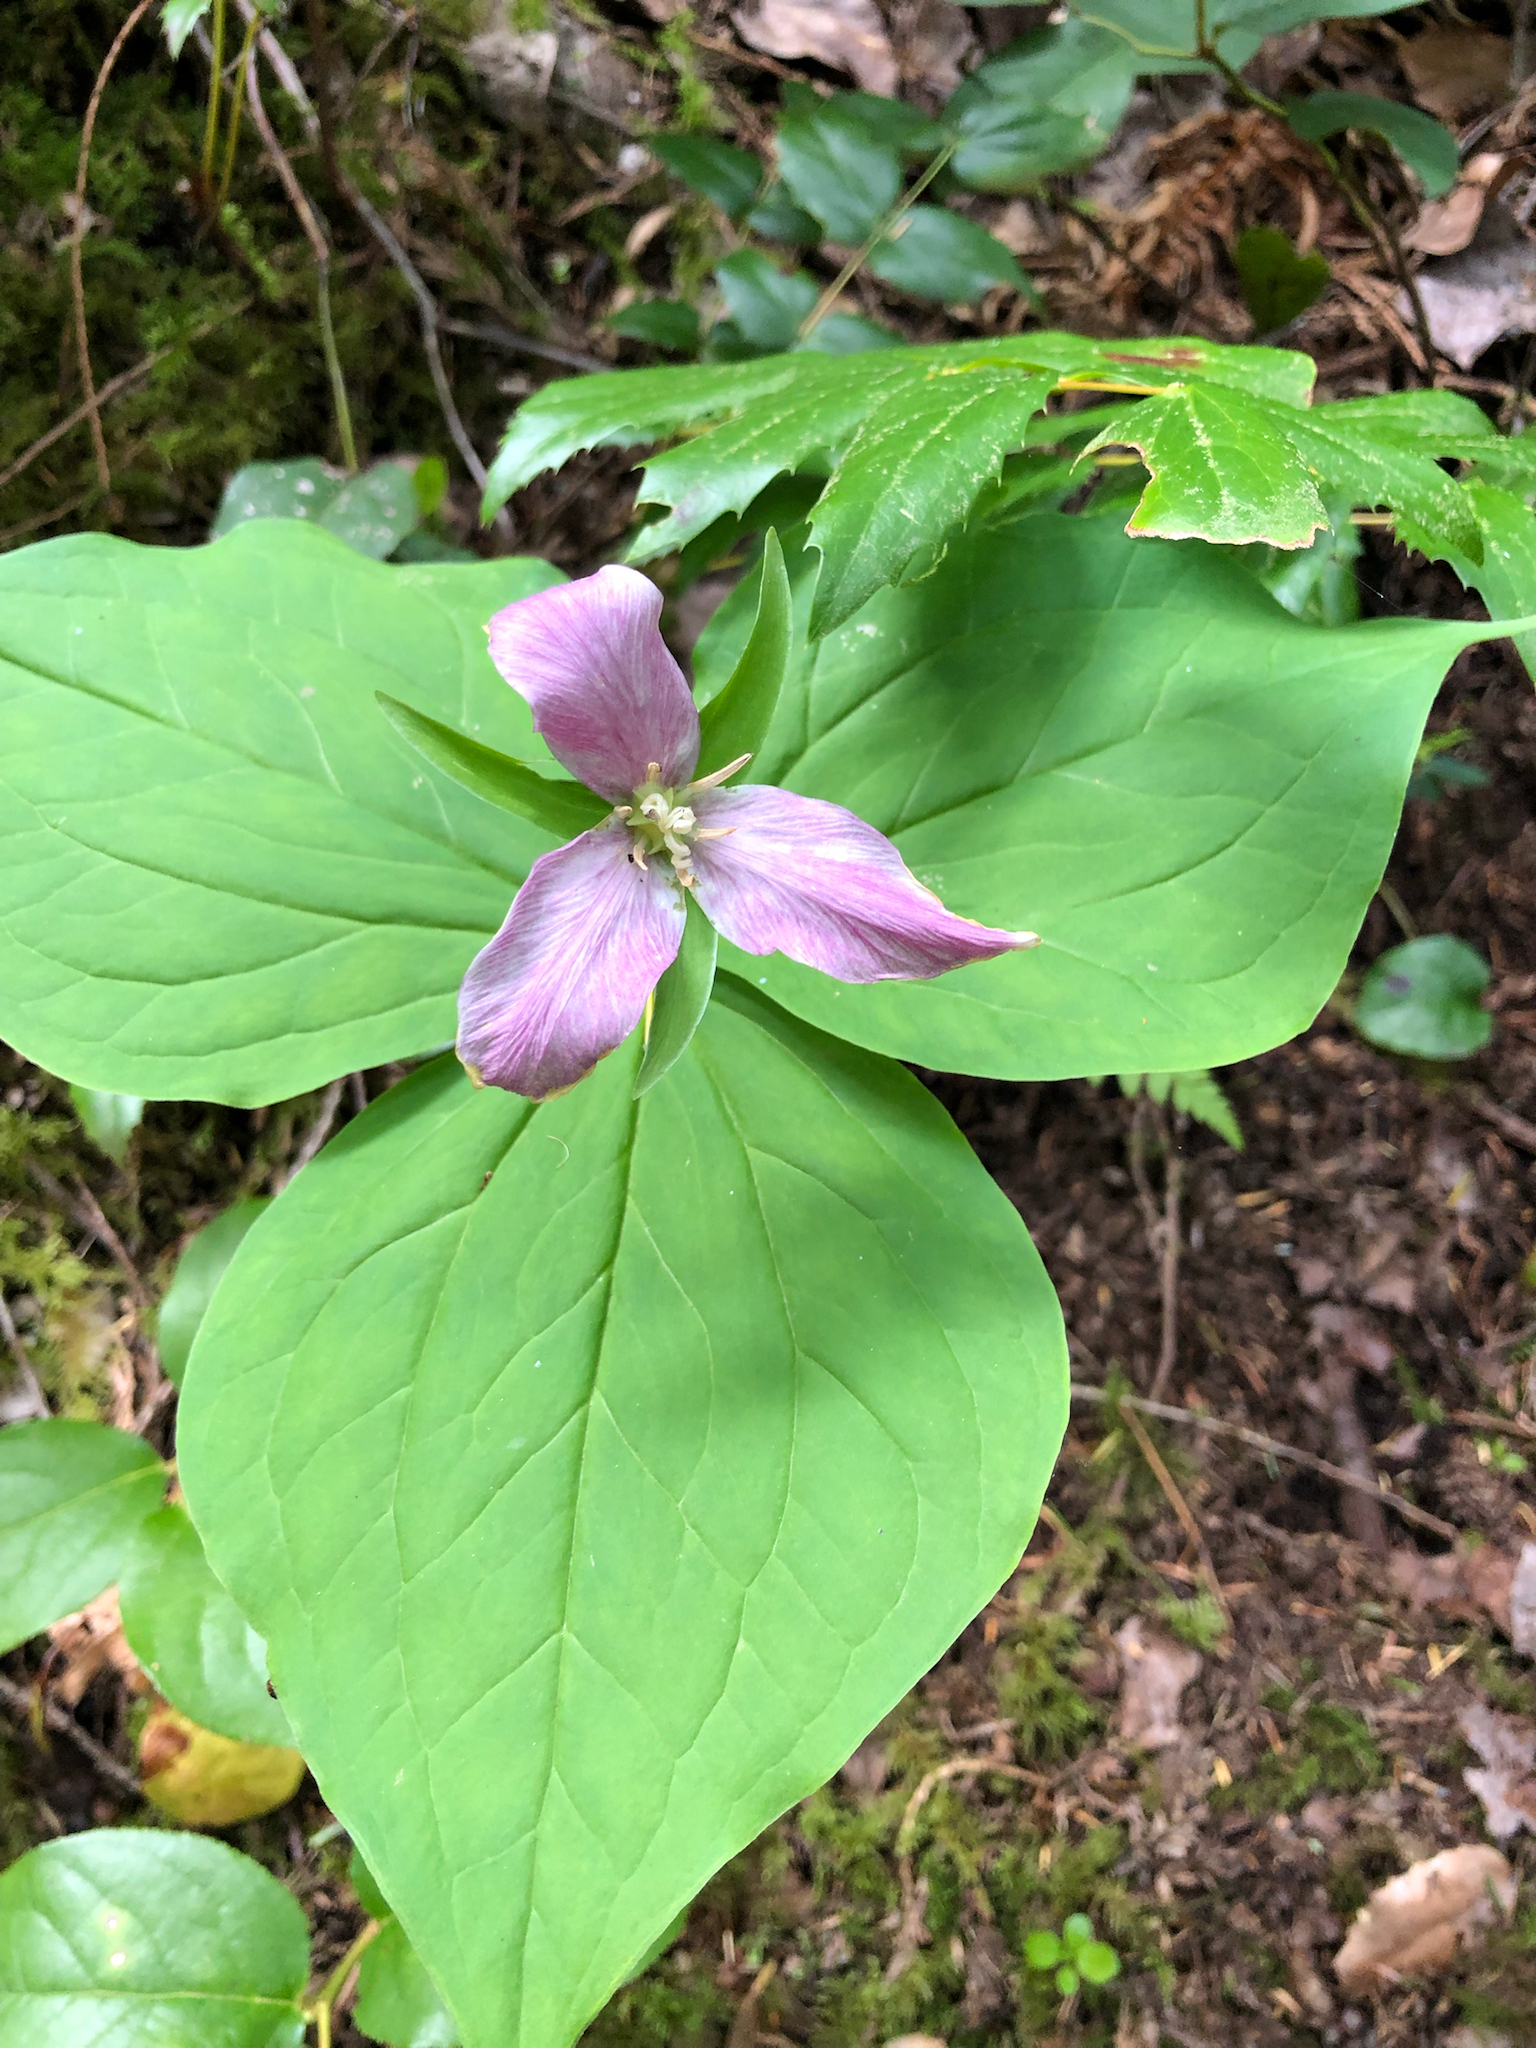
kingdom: Plantae
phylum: Tracheophyta
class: Liliopsida
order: Liliales
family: Melanthiaceae
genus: Trillium
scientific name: Trillium ovatum
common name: Pacific trillium
